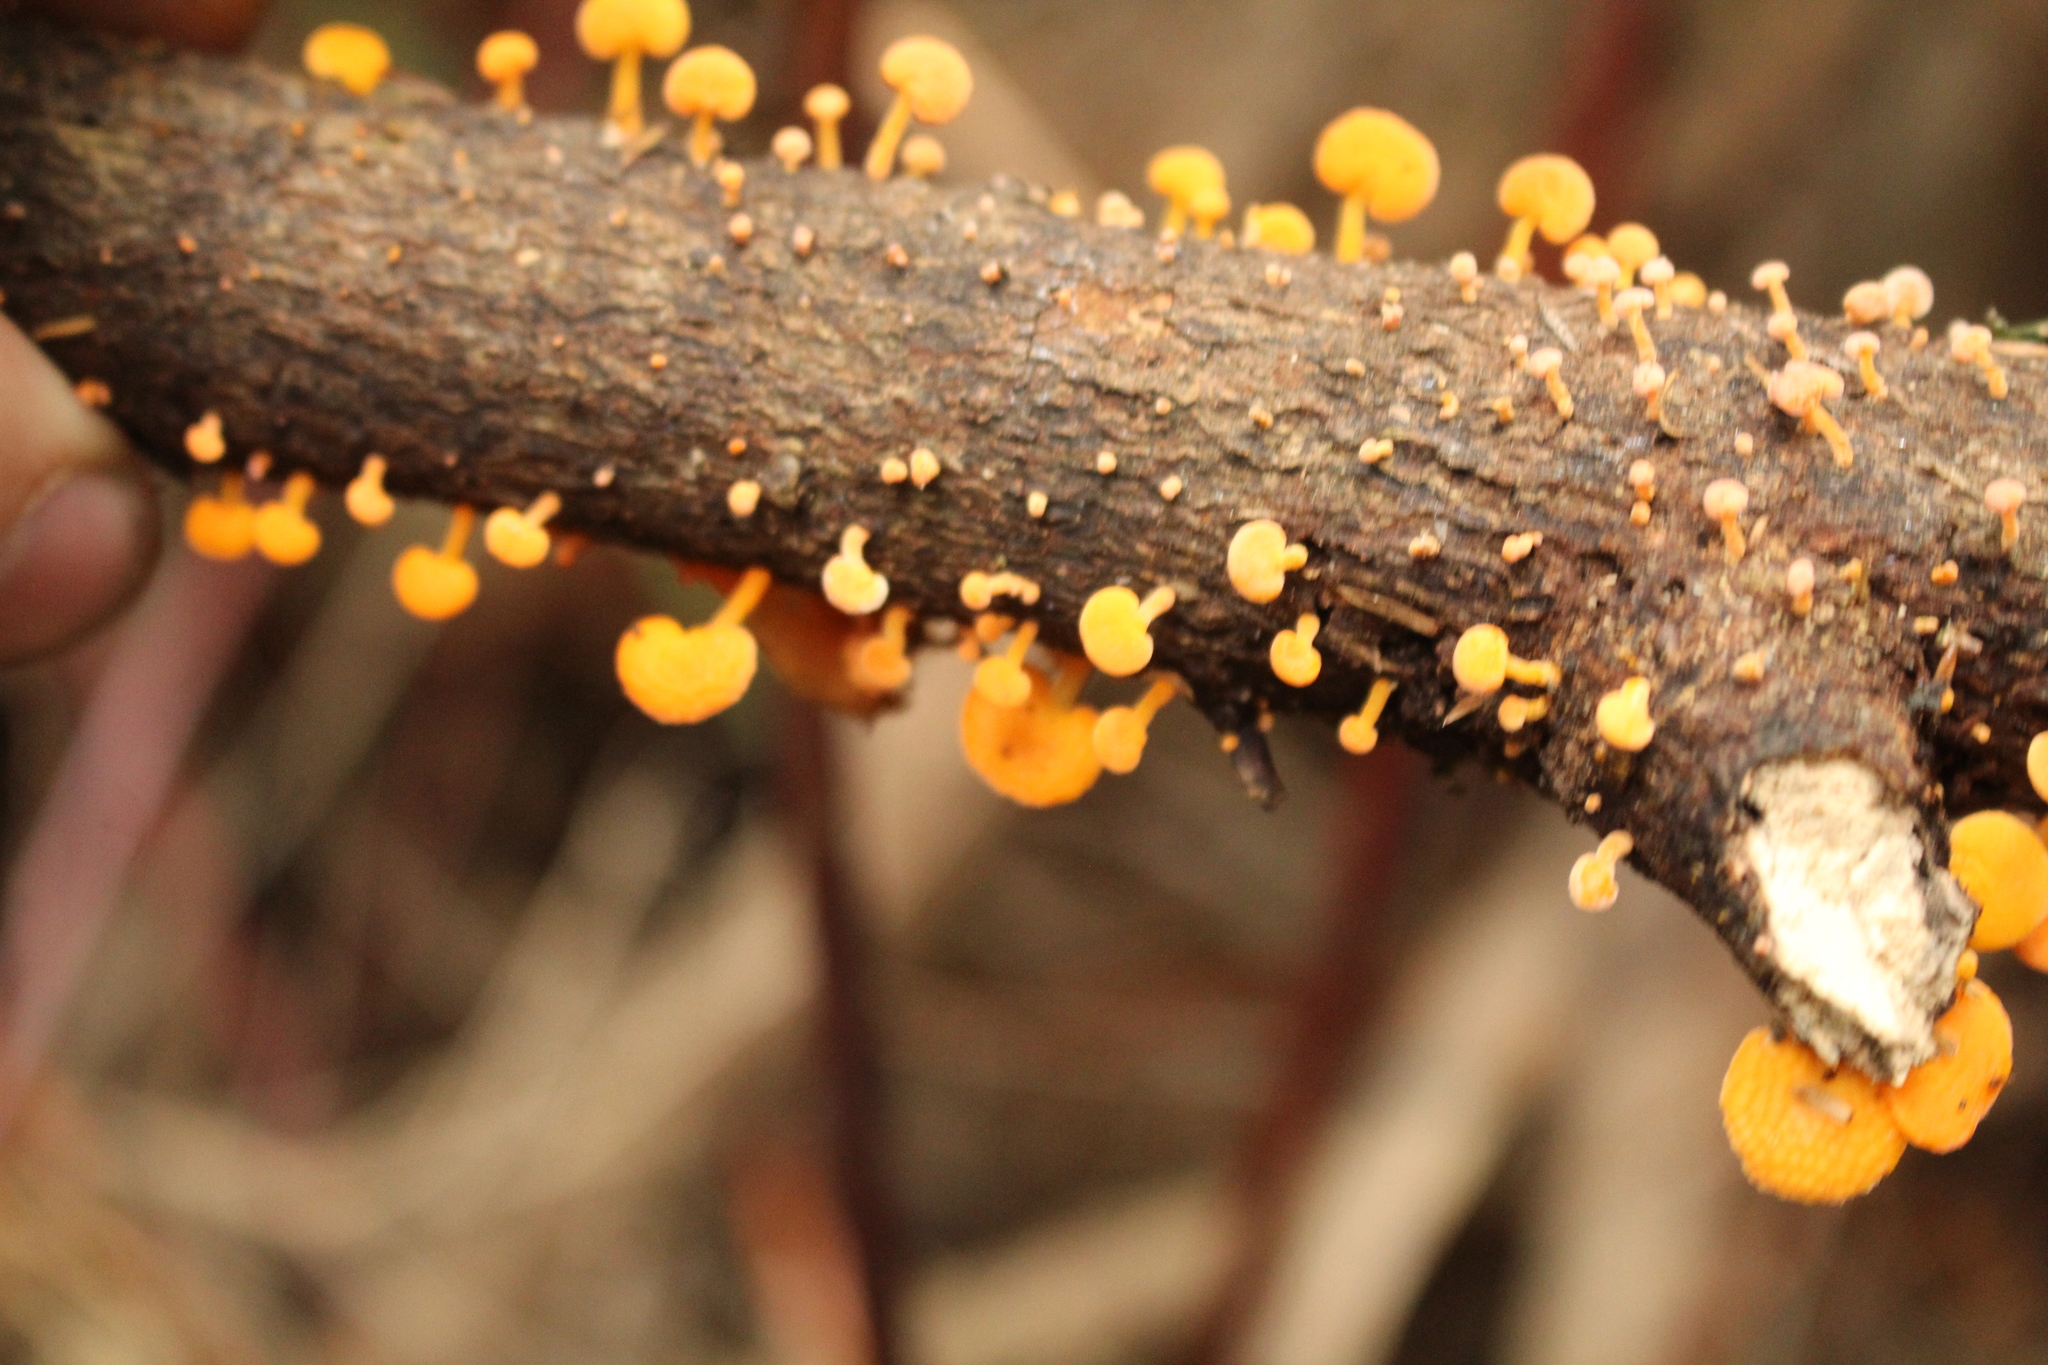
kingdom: Fungi
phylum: Basidiomycota
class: Agaricomycetes
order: Agaricales
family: Mycenaceae
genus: Favolaschia
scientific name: Favolaschia claudopus
